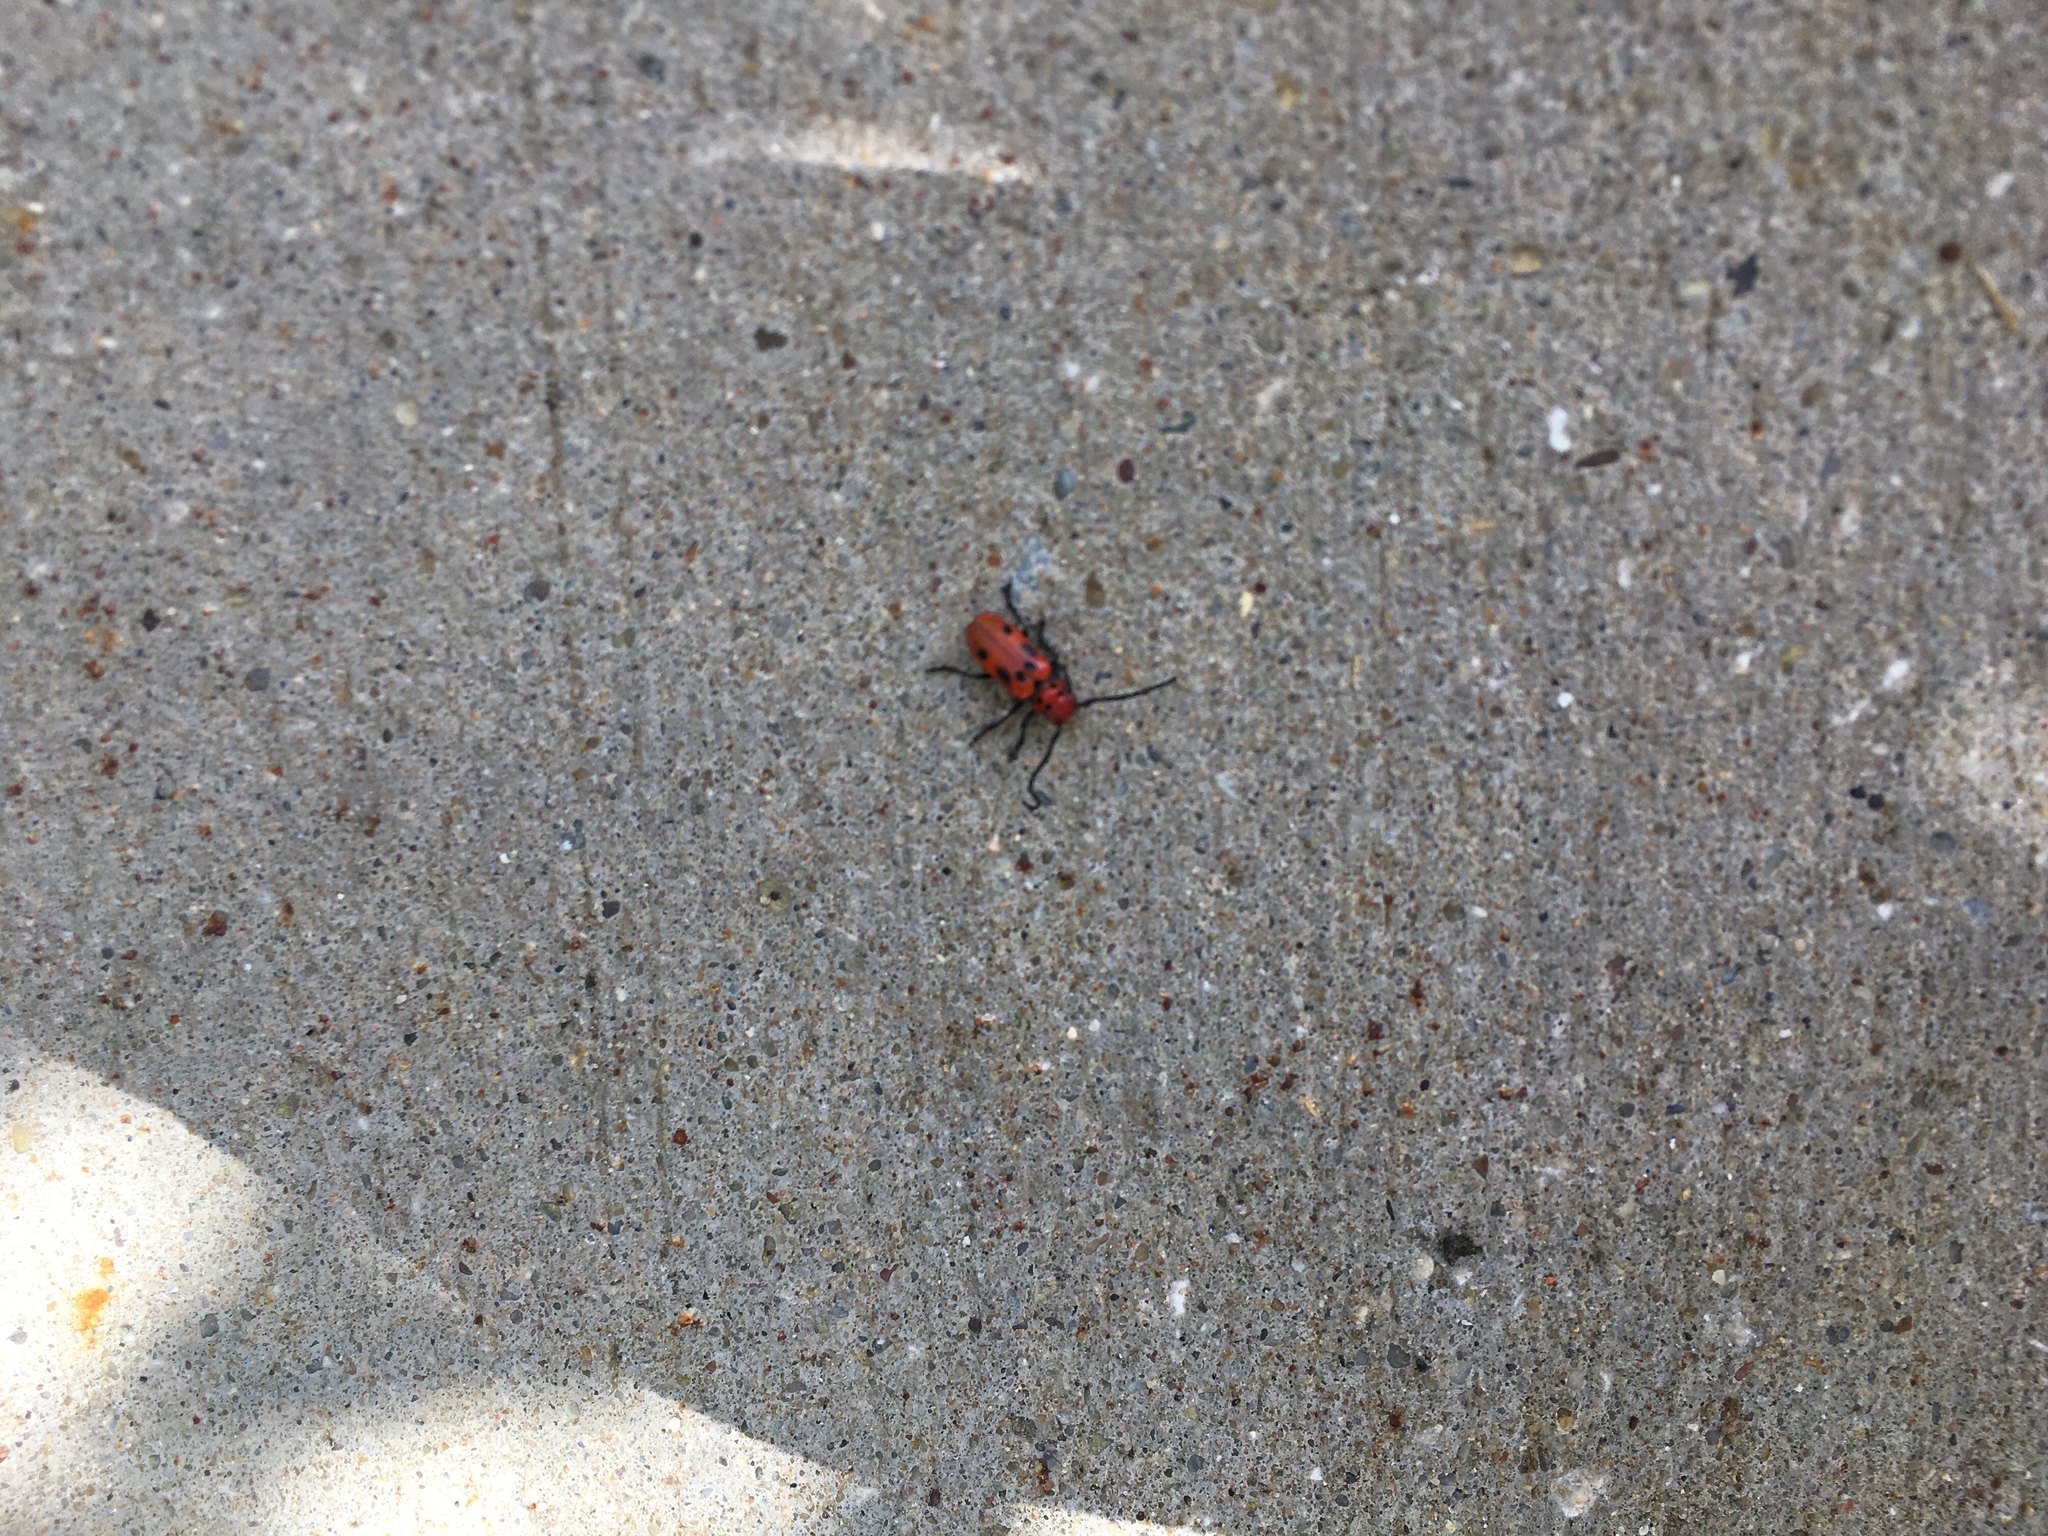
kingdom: Animalia
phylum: Arthropoda
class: Insecta
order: Coleoptera
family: Cerambycidae
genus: Tetraopes
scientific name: Tetraopes tetrophthalmus
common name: Red milkweed beetle
